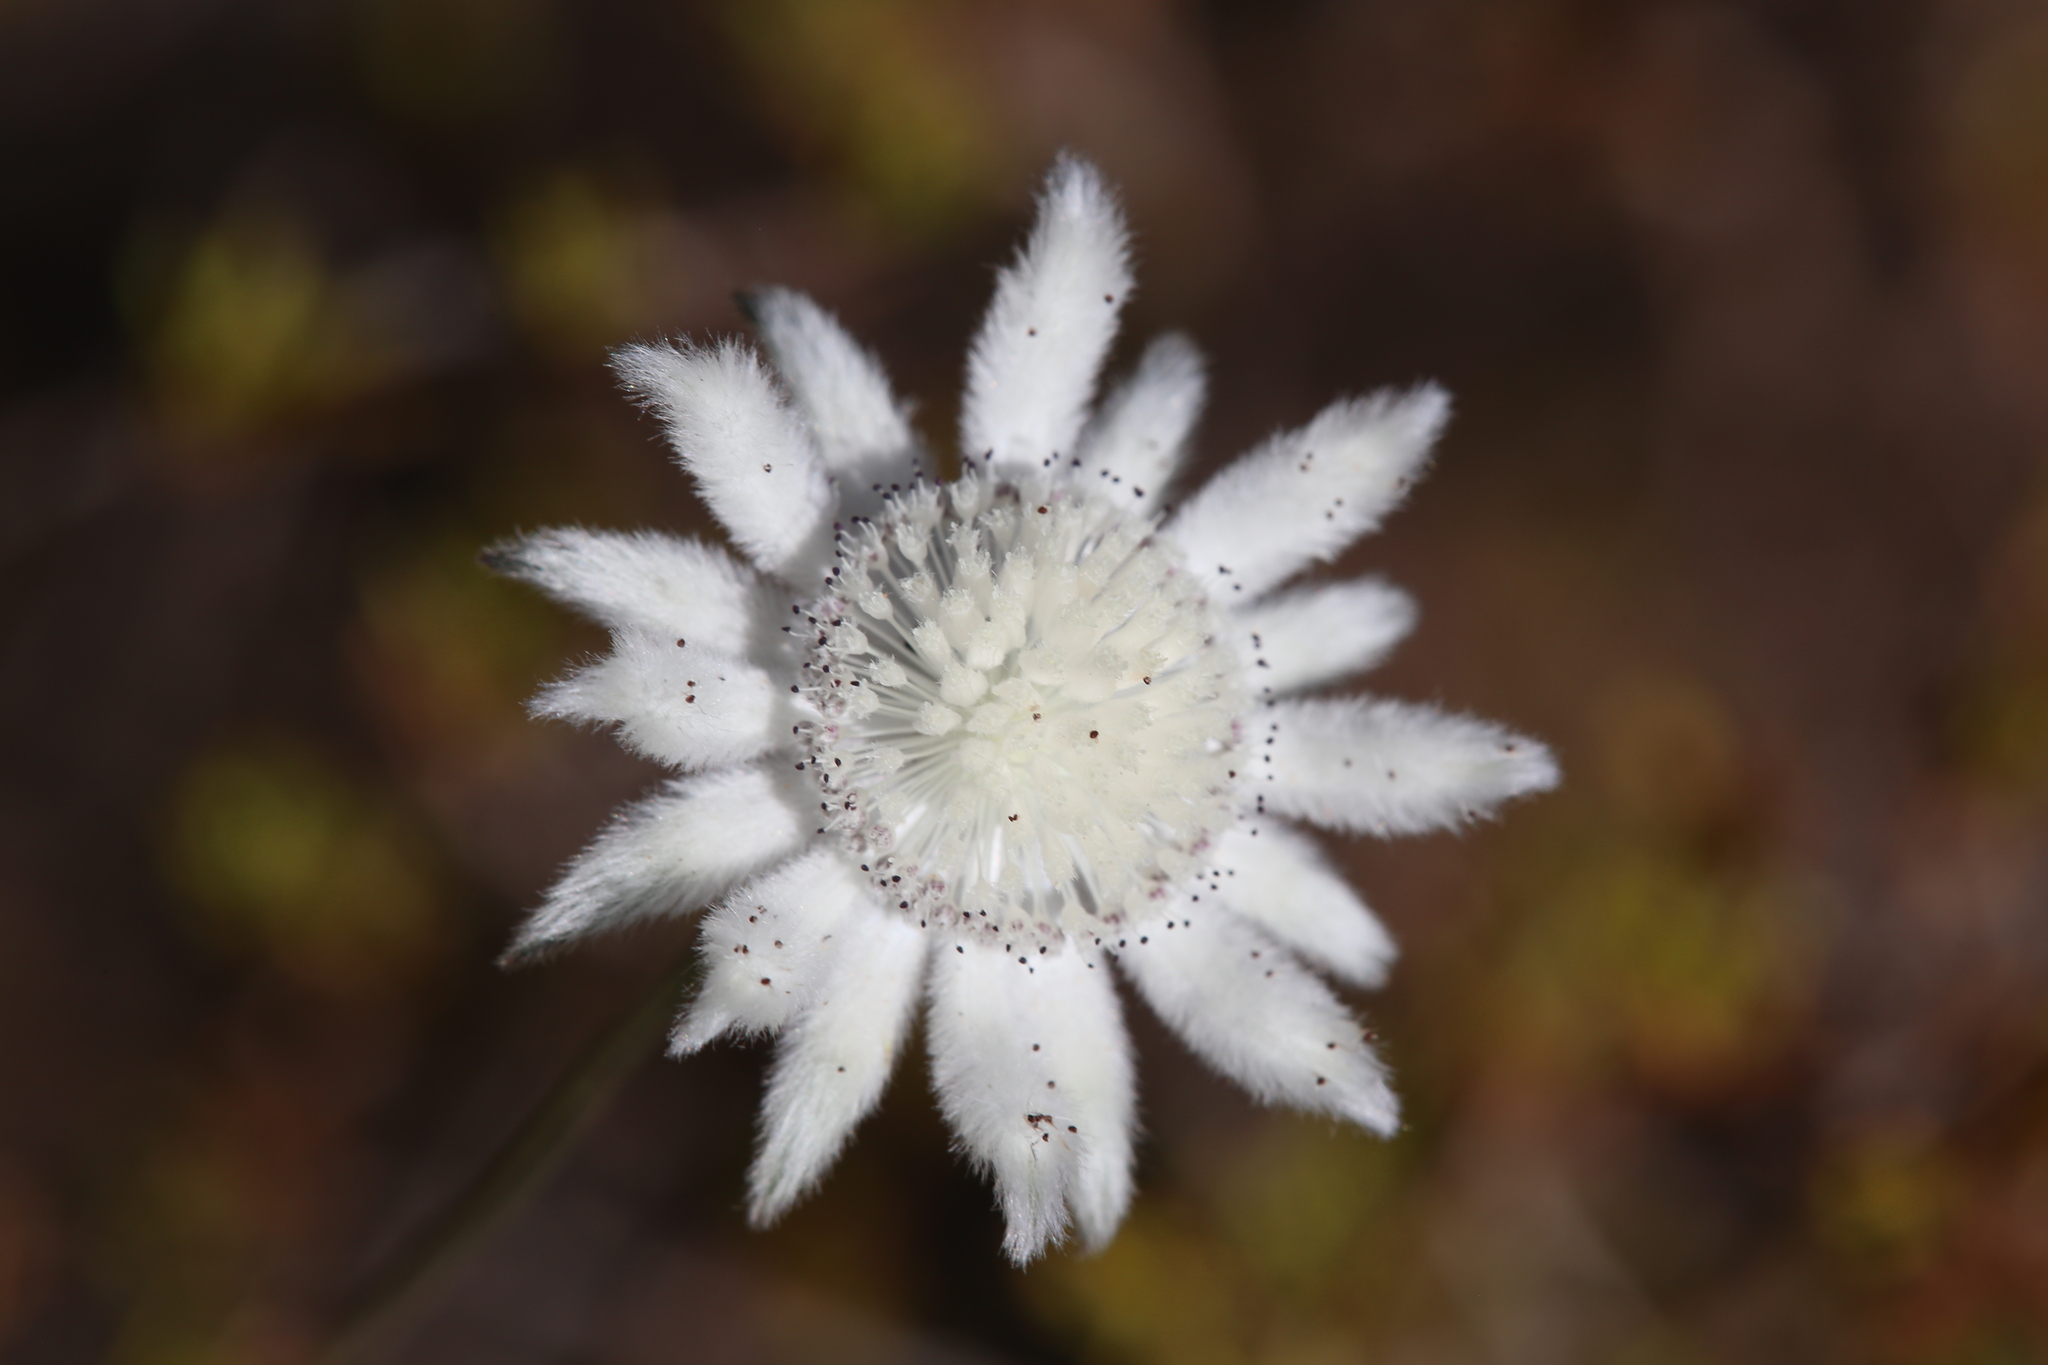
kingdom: Plantae
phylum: Tracheophyta
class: Magnoliopsida
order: Apiales
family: Apiaceae
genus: Actinotus
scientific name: Actinotus leucocephalus
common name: Flannel-flower
